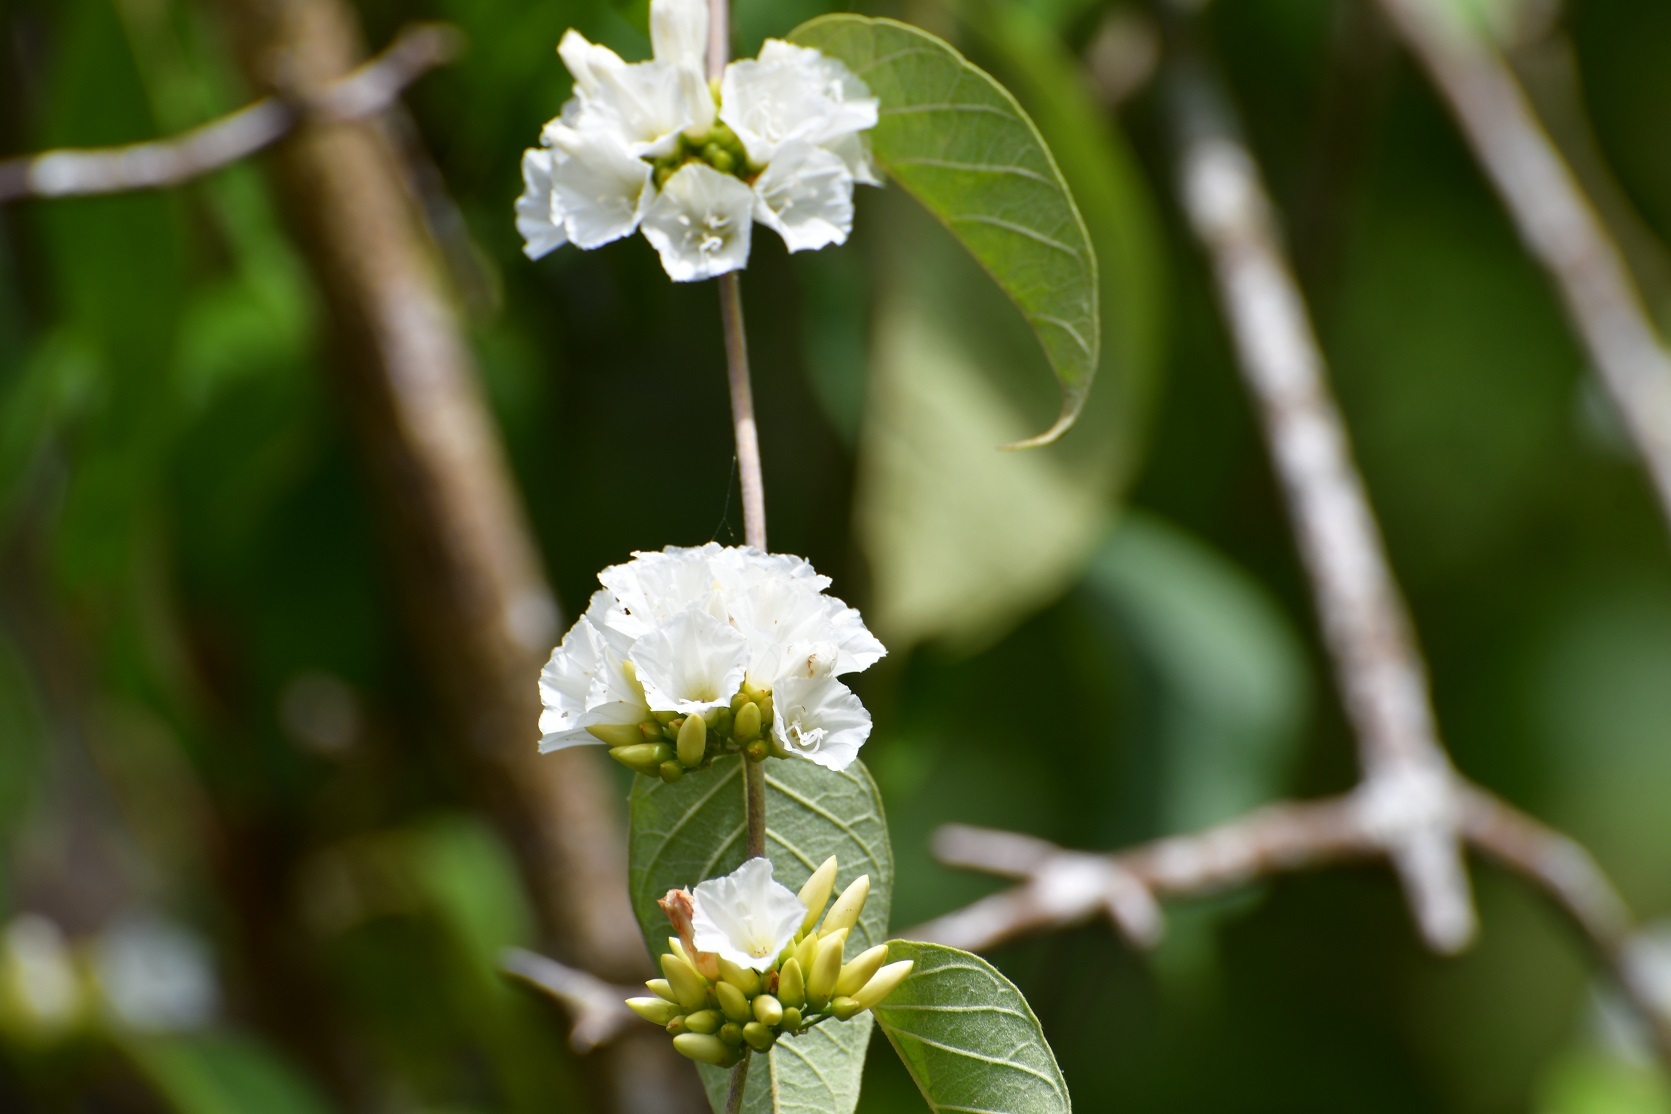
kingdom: Plantae
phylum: Tracheophyta
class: Magnoliopsida
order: Solanales
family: Convolvulaceae
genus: Jacquemontia
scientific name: Jacquemontia nodiflora
